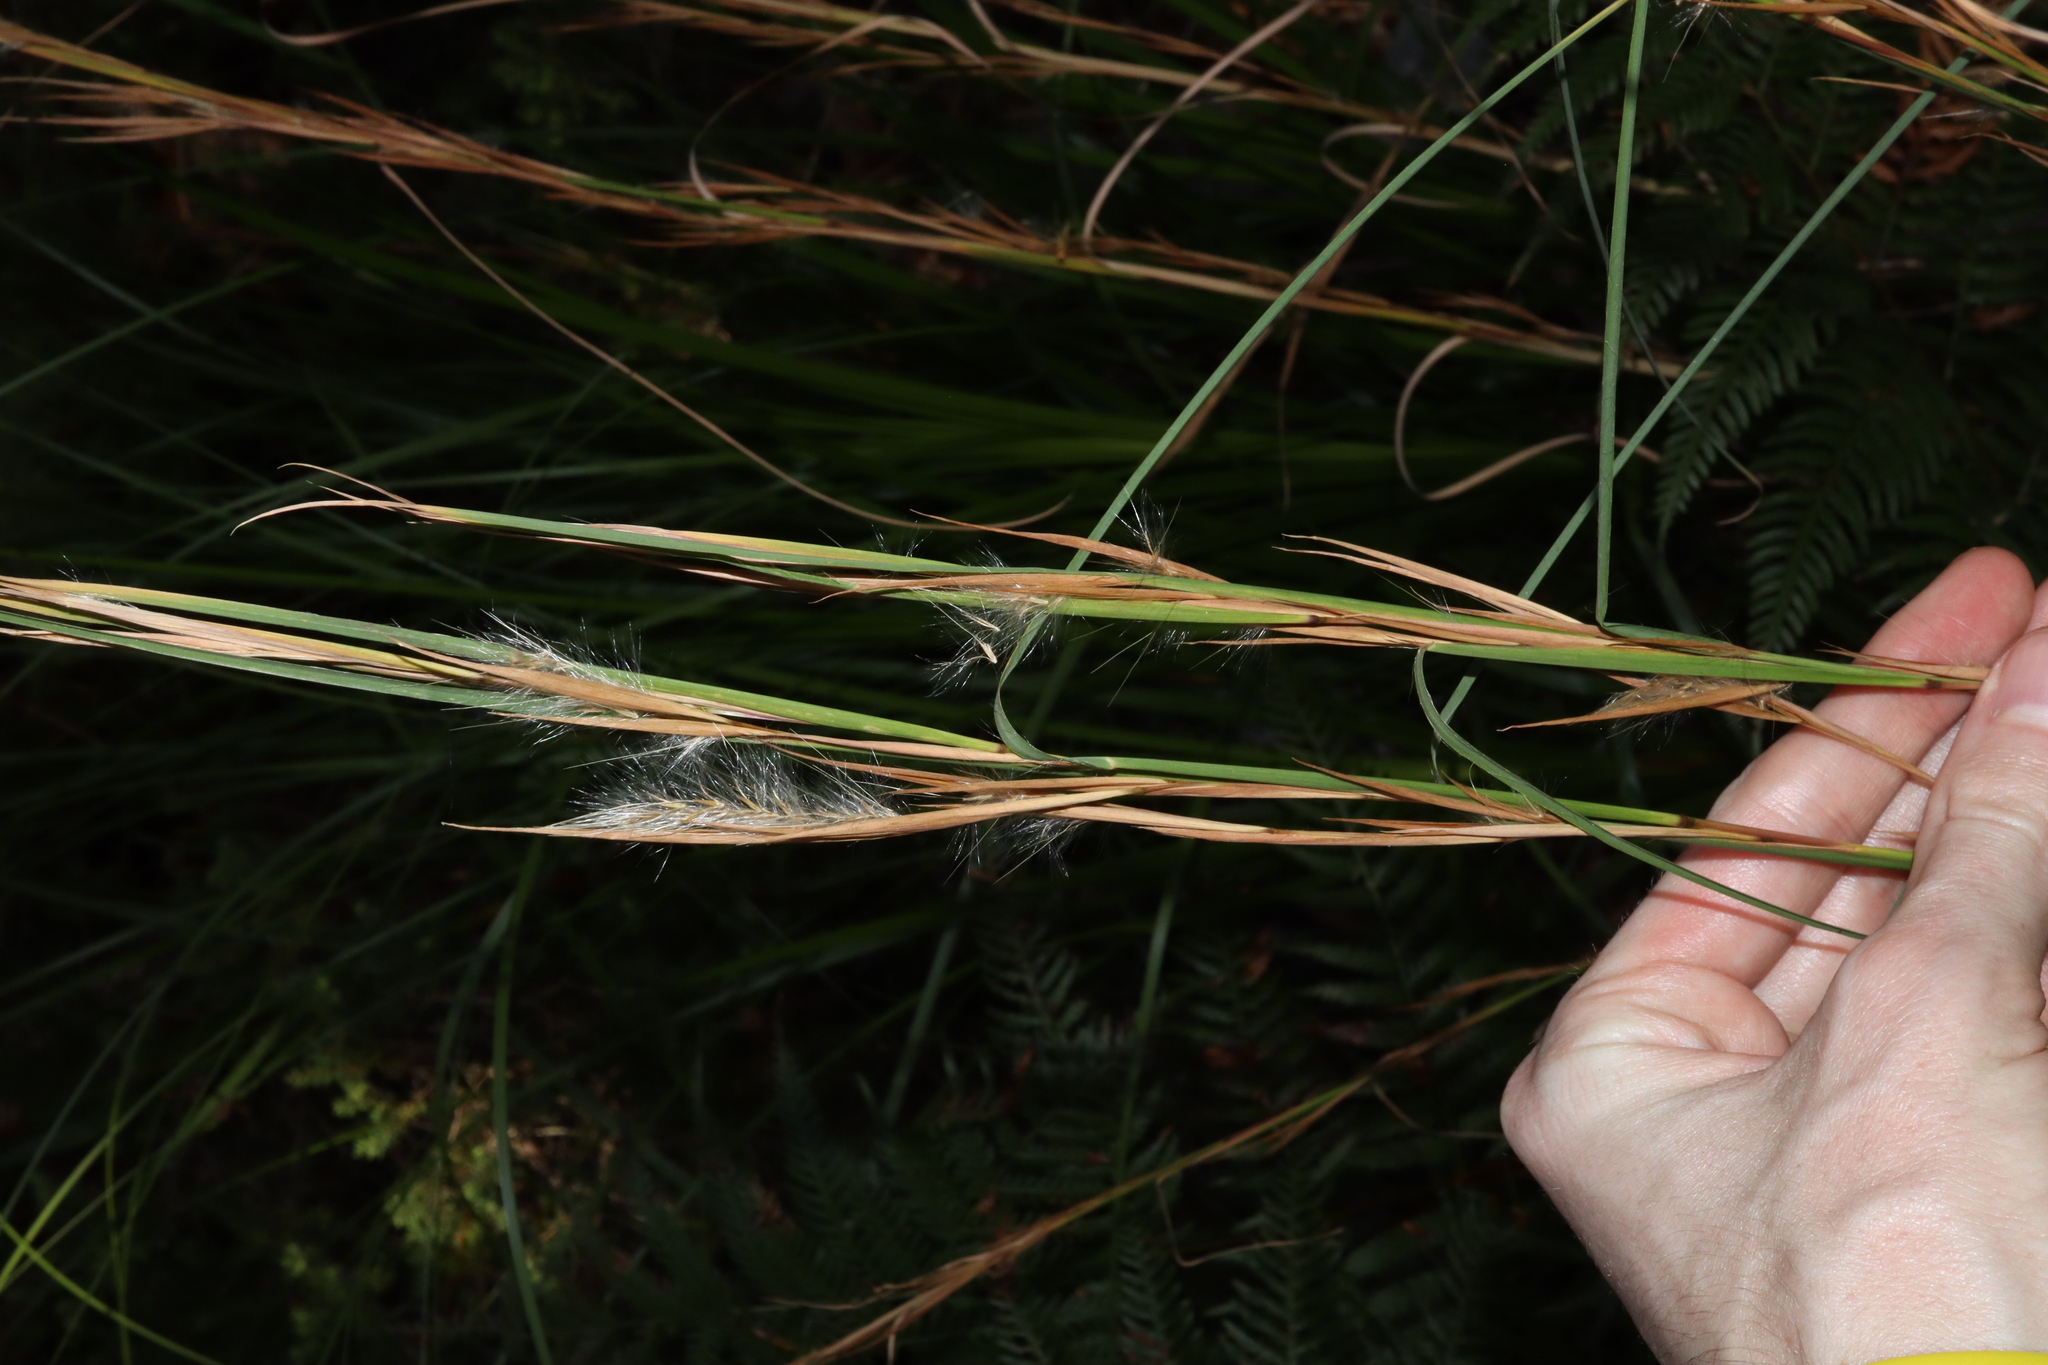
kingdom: Plantae
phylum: Tracheophyta
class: Liliopsida
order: Poales
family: Poaceae
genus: Andropogon
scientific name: Andropogon virginicus
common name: Broomsedge bluestem
